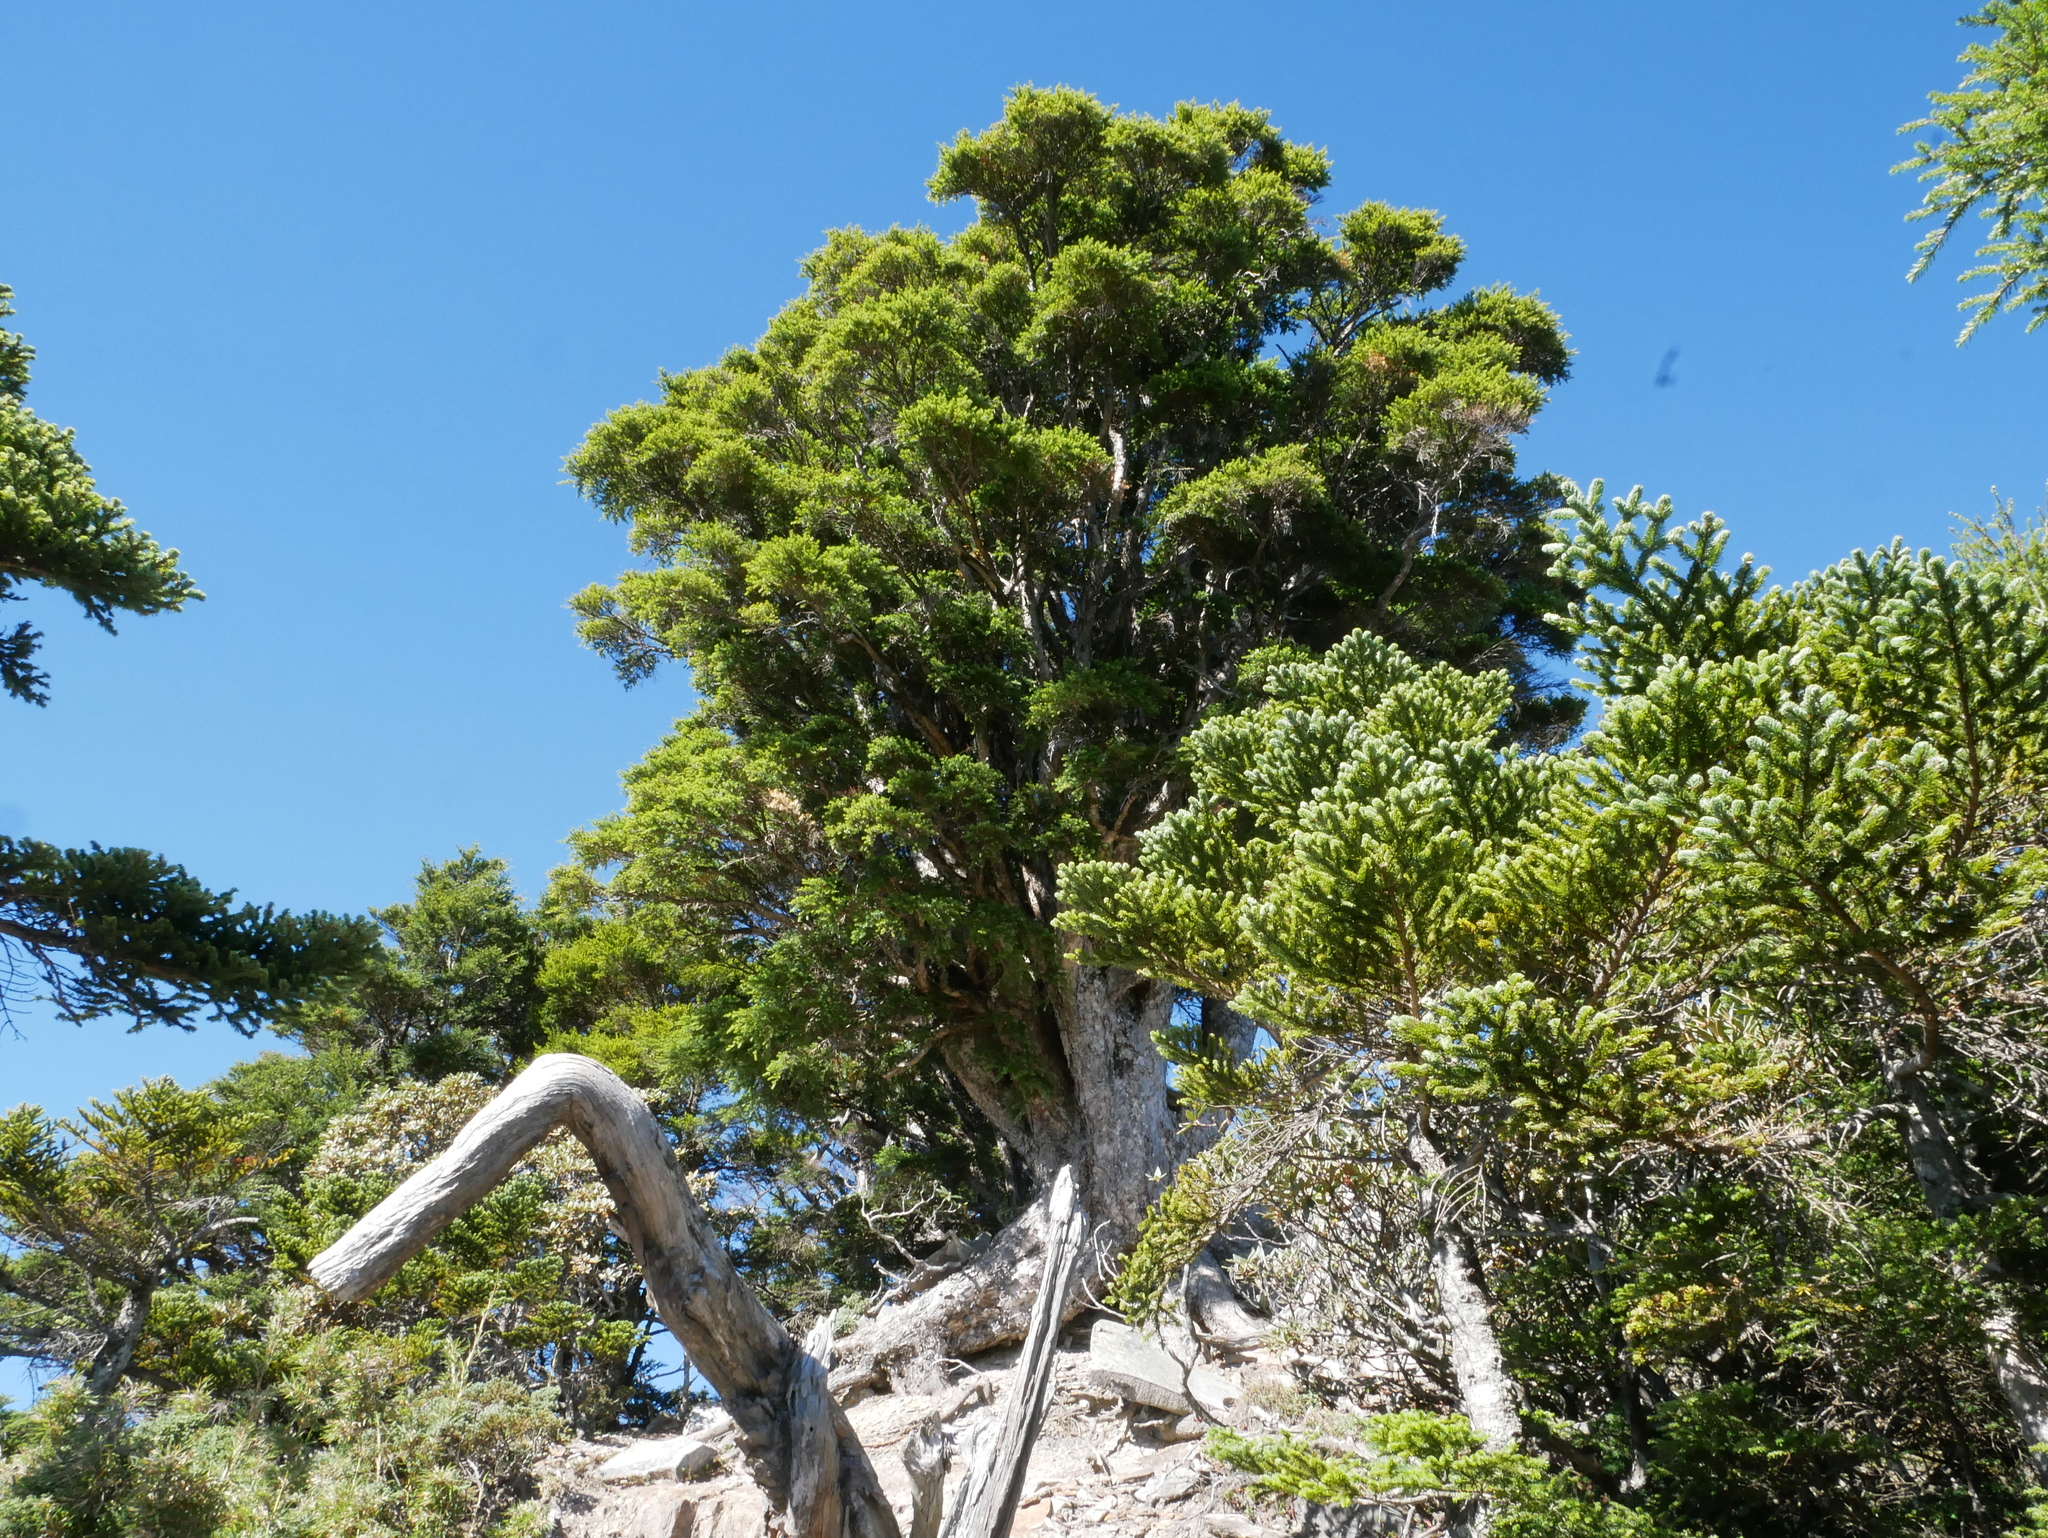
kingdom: Plantae
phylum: Tracheophyta
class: Pinopsida
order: Pinales
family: Pinaceae
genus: Tsuga
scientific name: Tsuga chinensis
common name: Chinese hemlock
